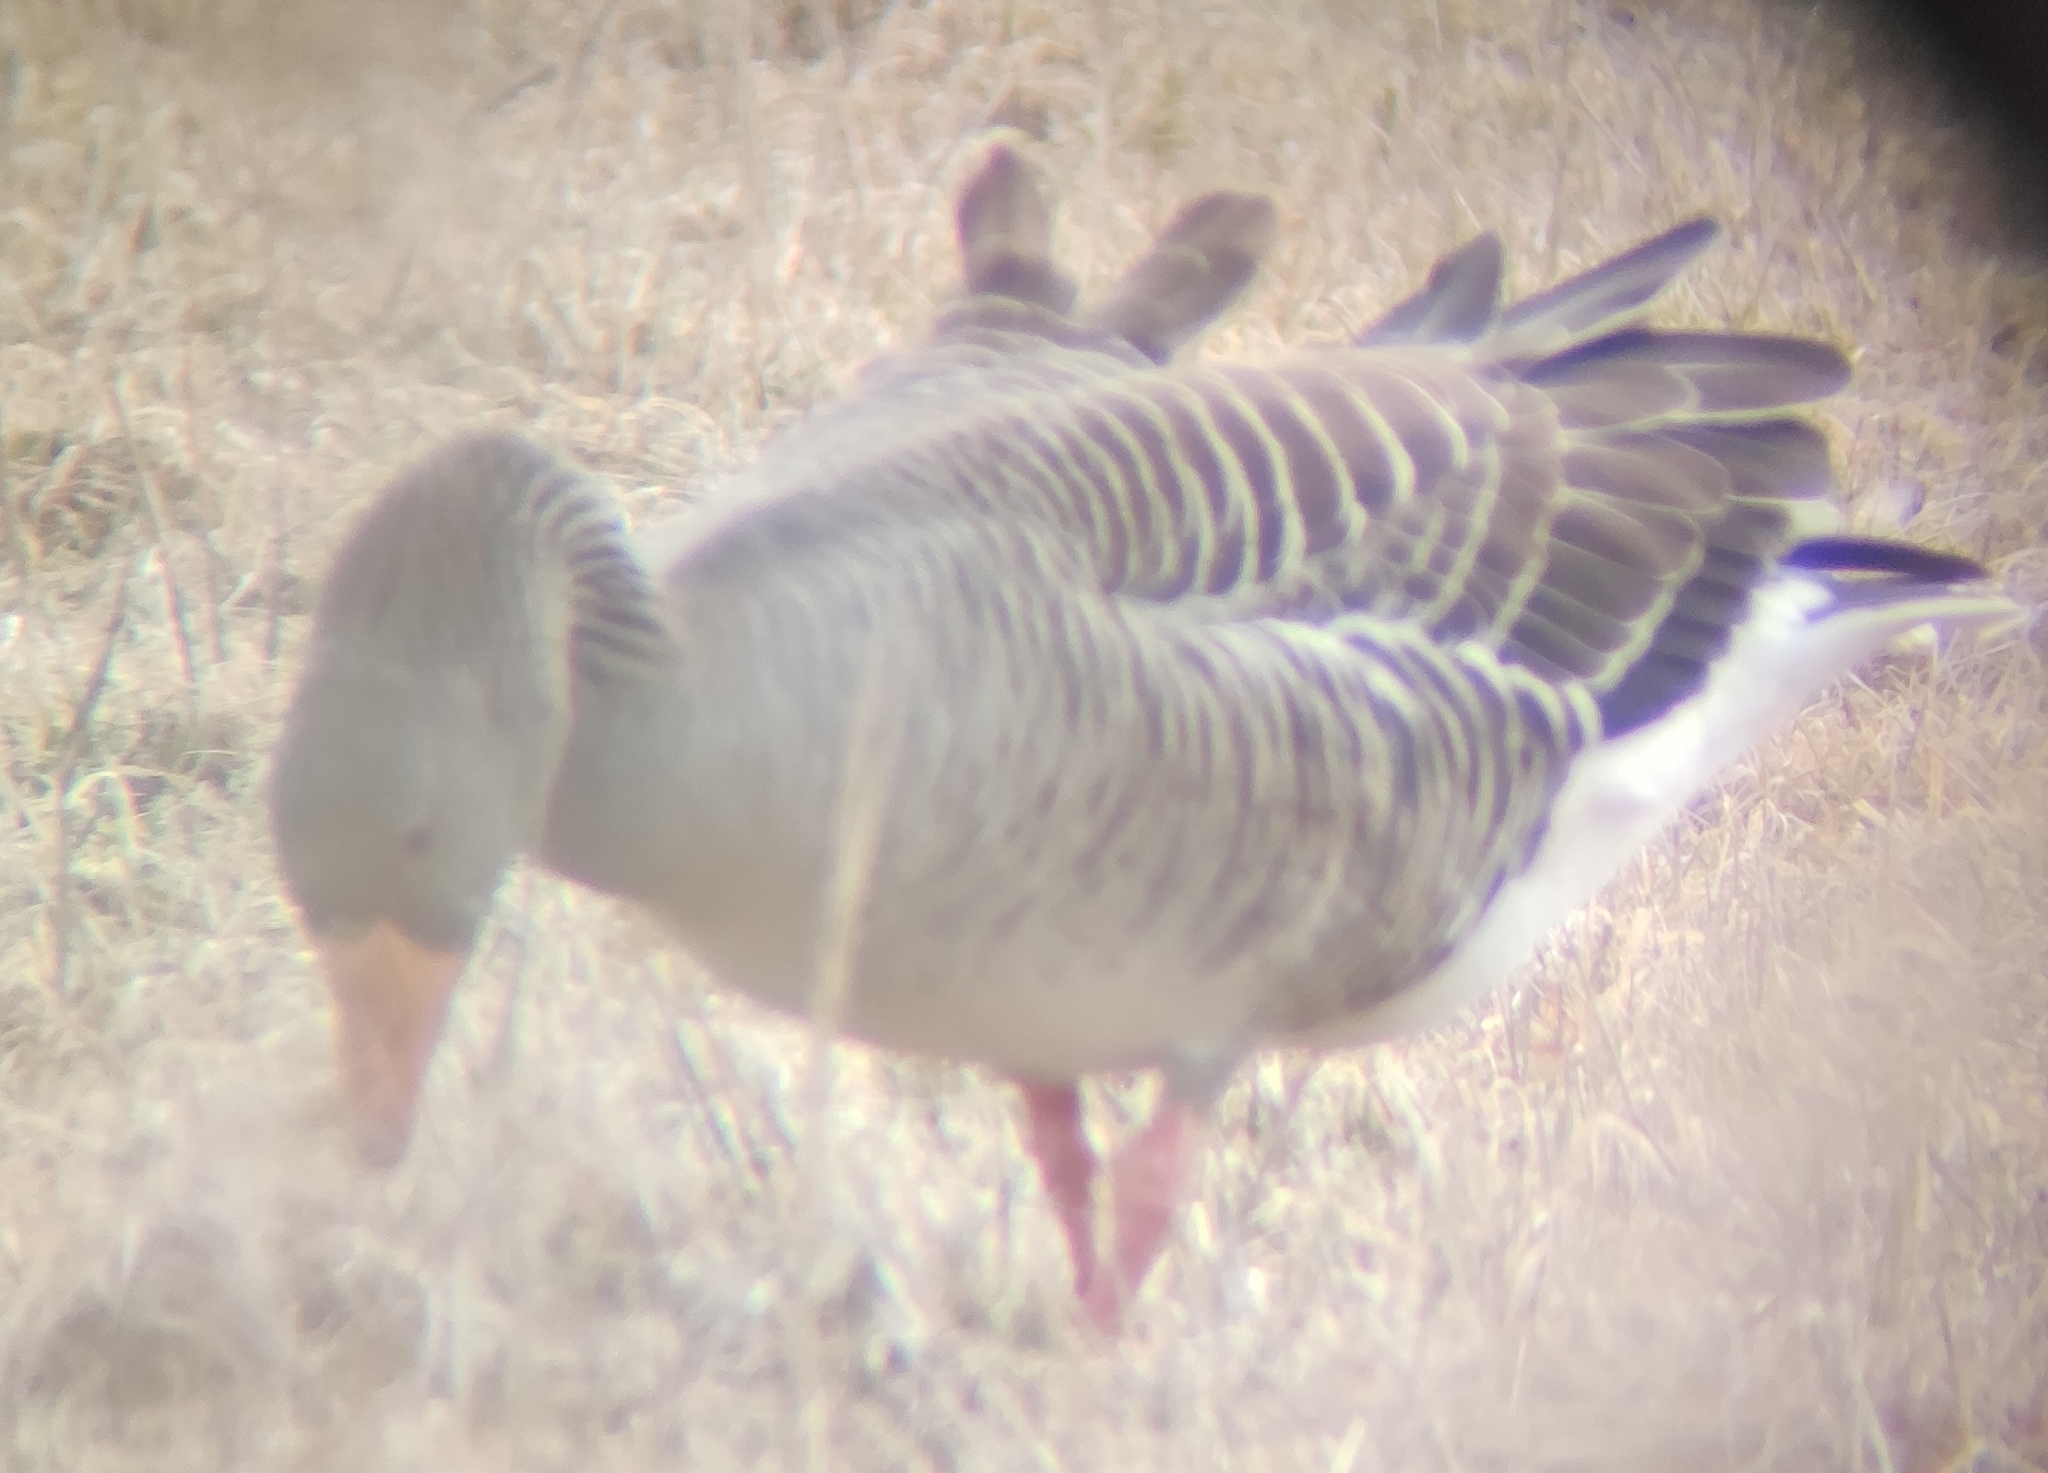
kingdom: Animalia
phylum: Chordata
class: Aves
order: Anseriformes
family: Anatidae
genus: Anser
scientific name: Anser anser
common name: Greylag goose
